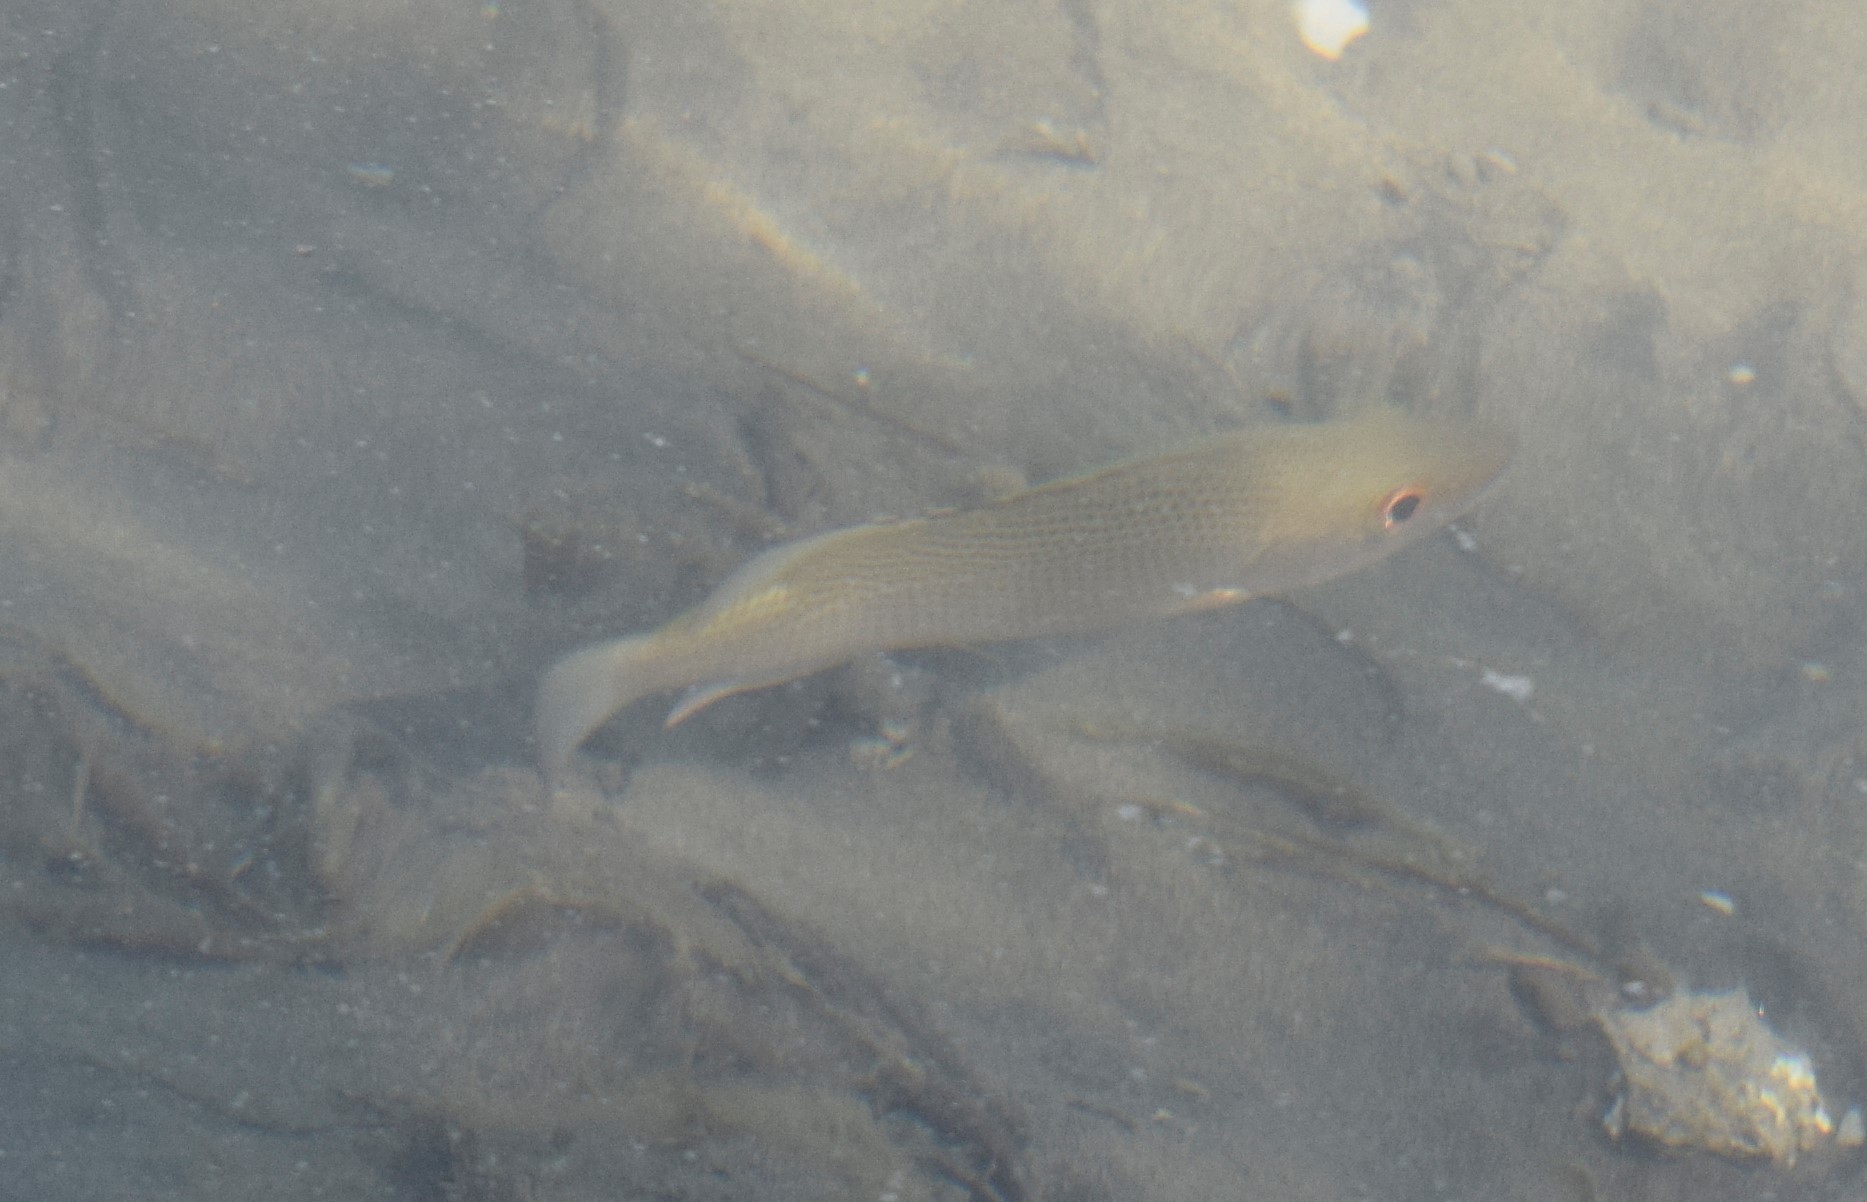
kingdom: Animalia
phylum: Chordata
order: Perciformes
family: Lutjanidae
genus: Lutjanus
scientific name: Lutjanus griseus
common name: Gray snapper
